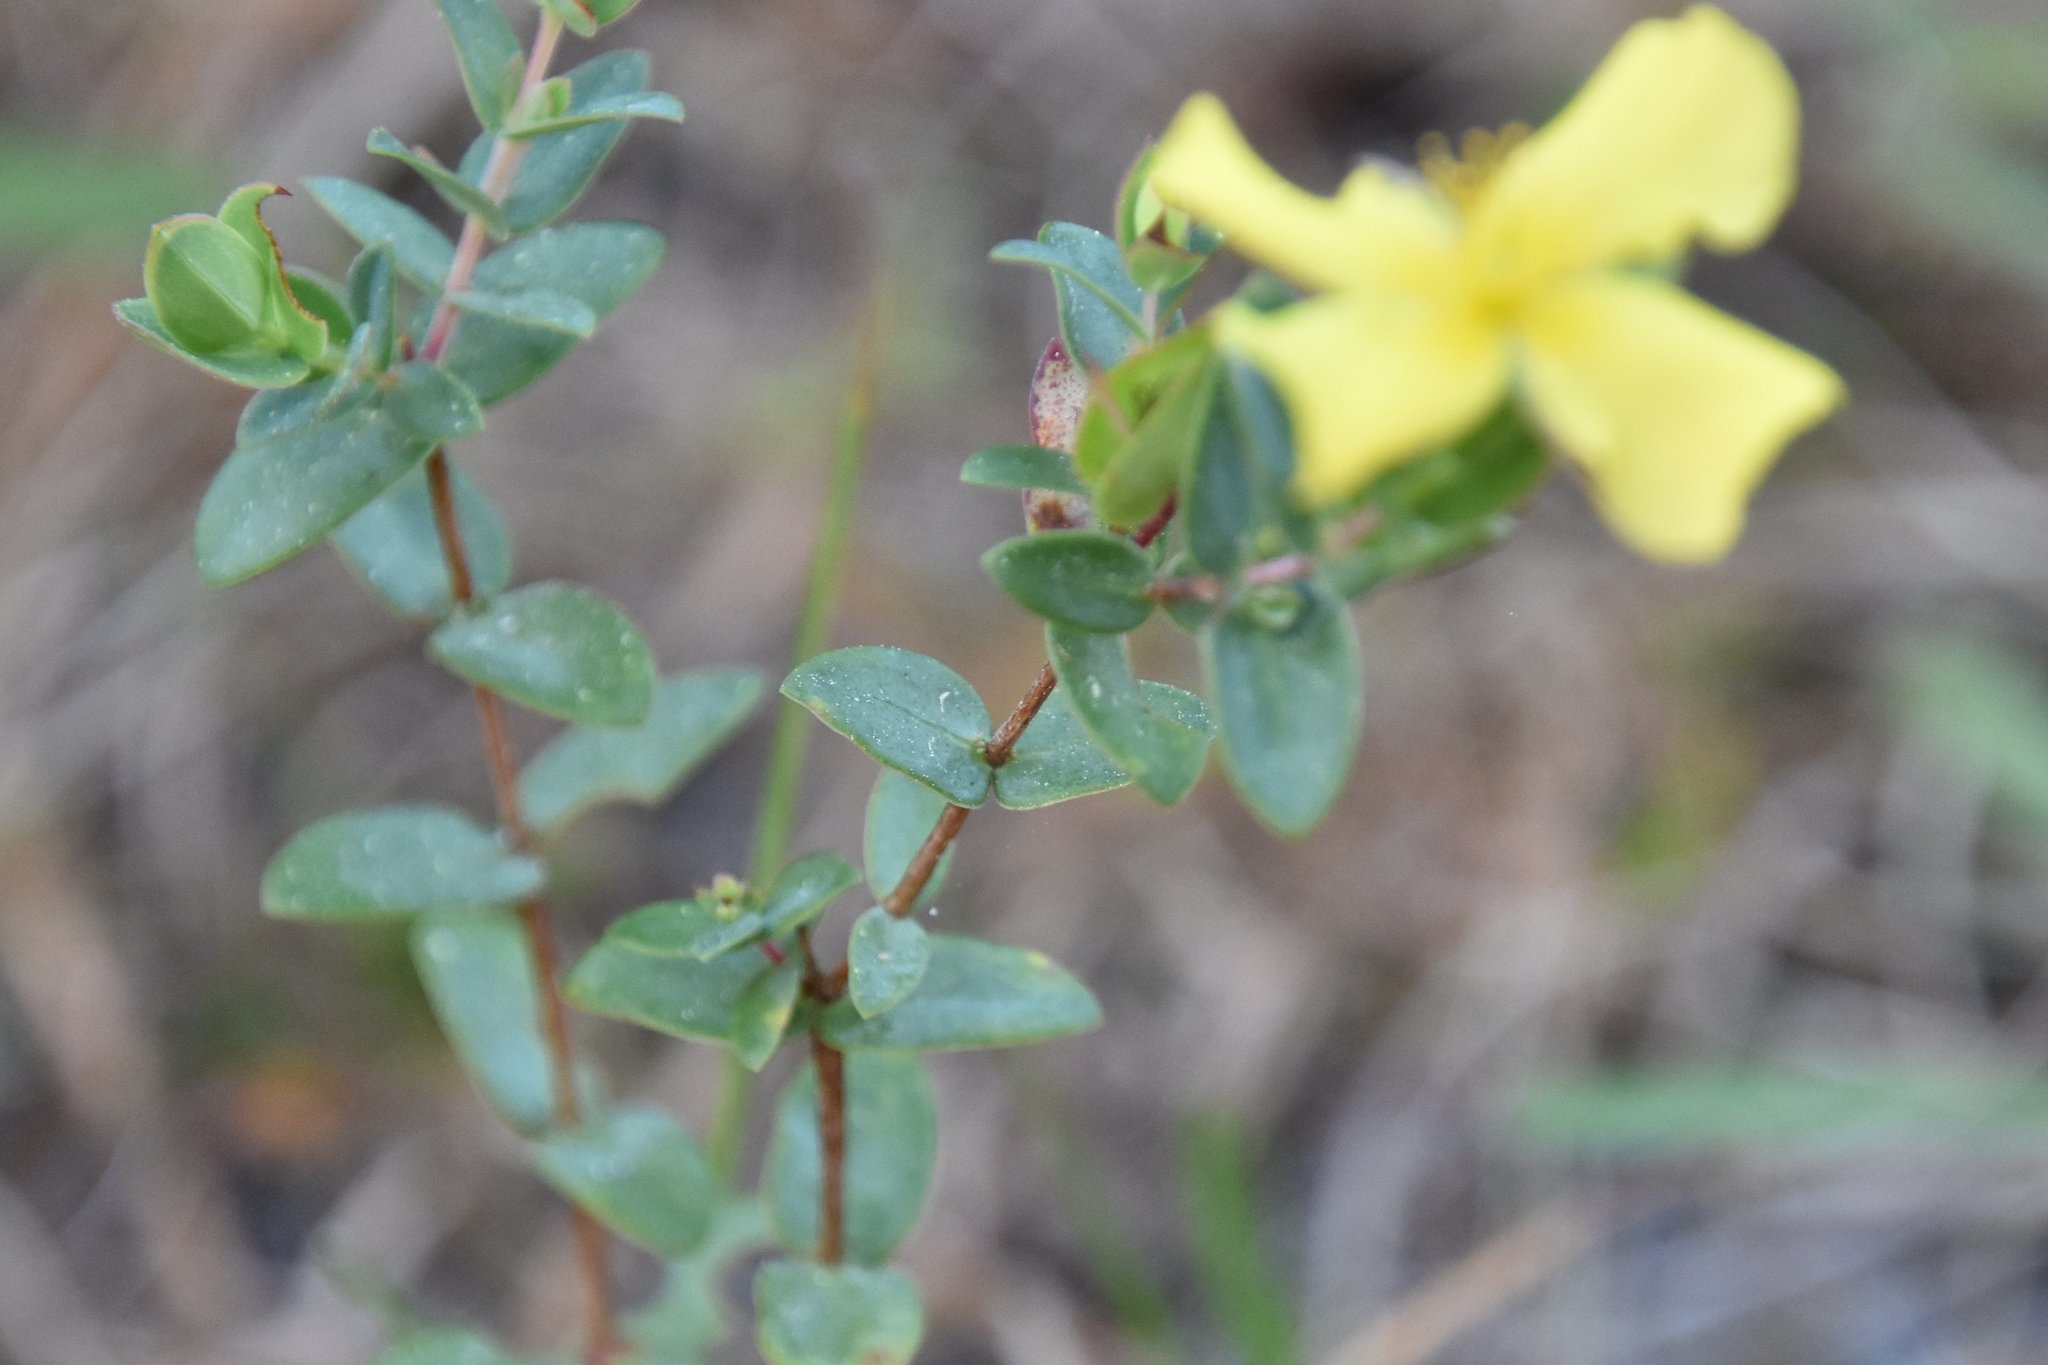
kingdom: Plantae
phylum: Tracheophyta
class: Magnoliopsida
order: Malpighiales
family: Hypericaceae
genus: Hypericum
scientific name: Hypericum tetrapetalum
